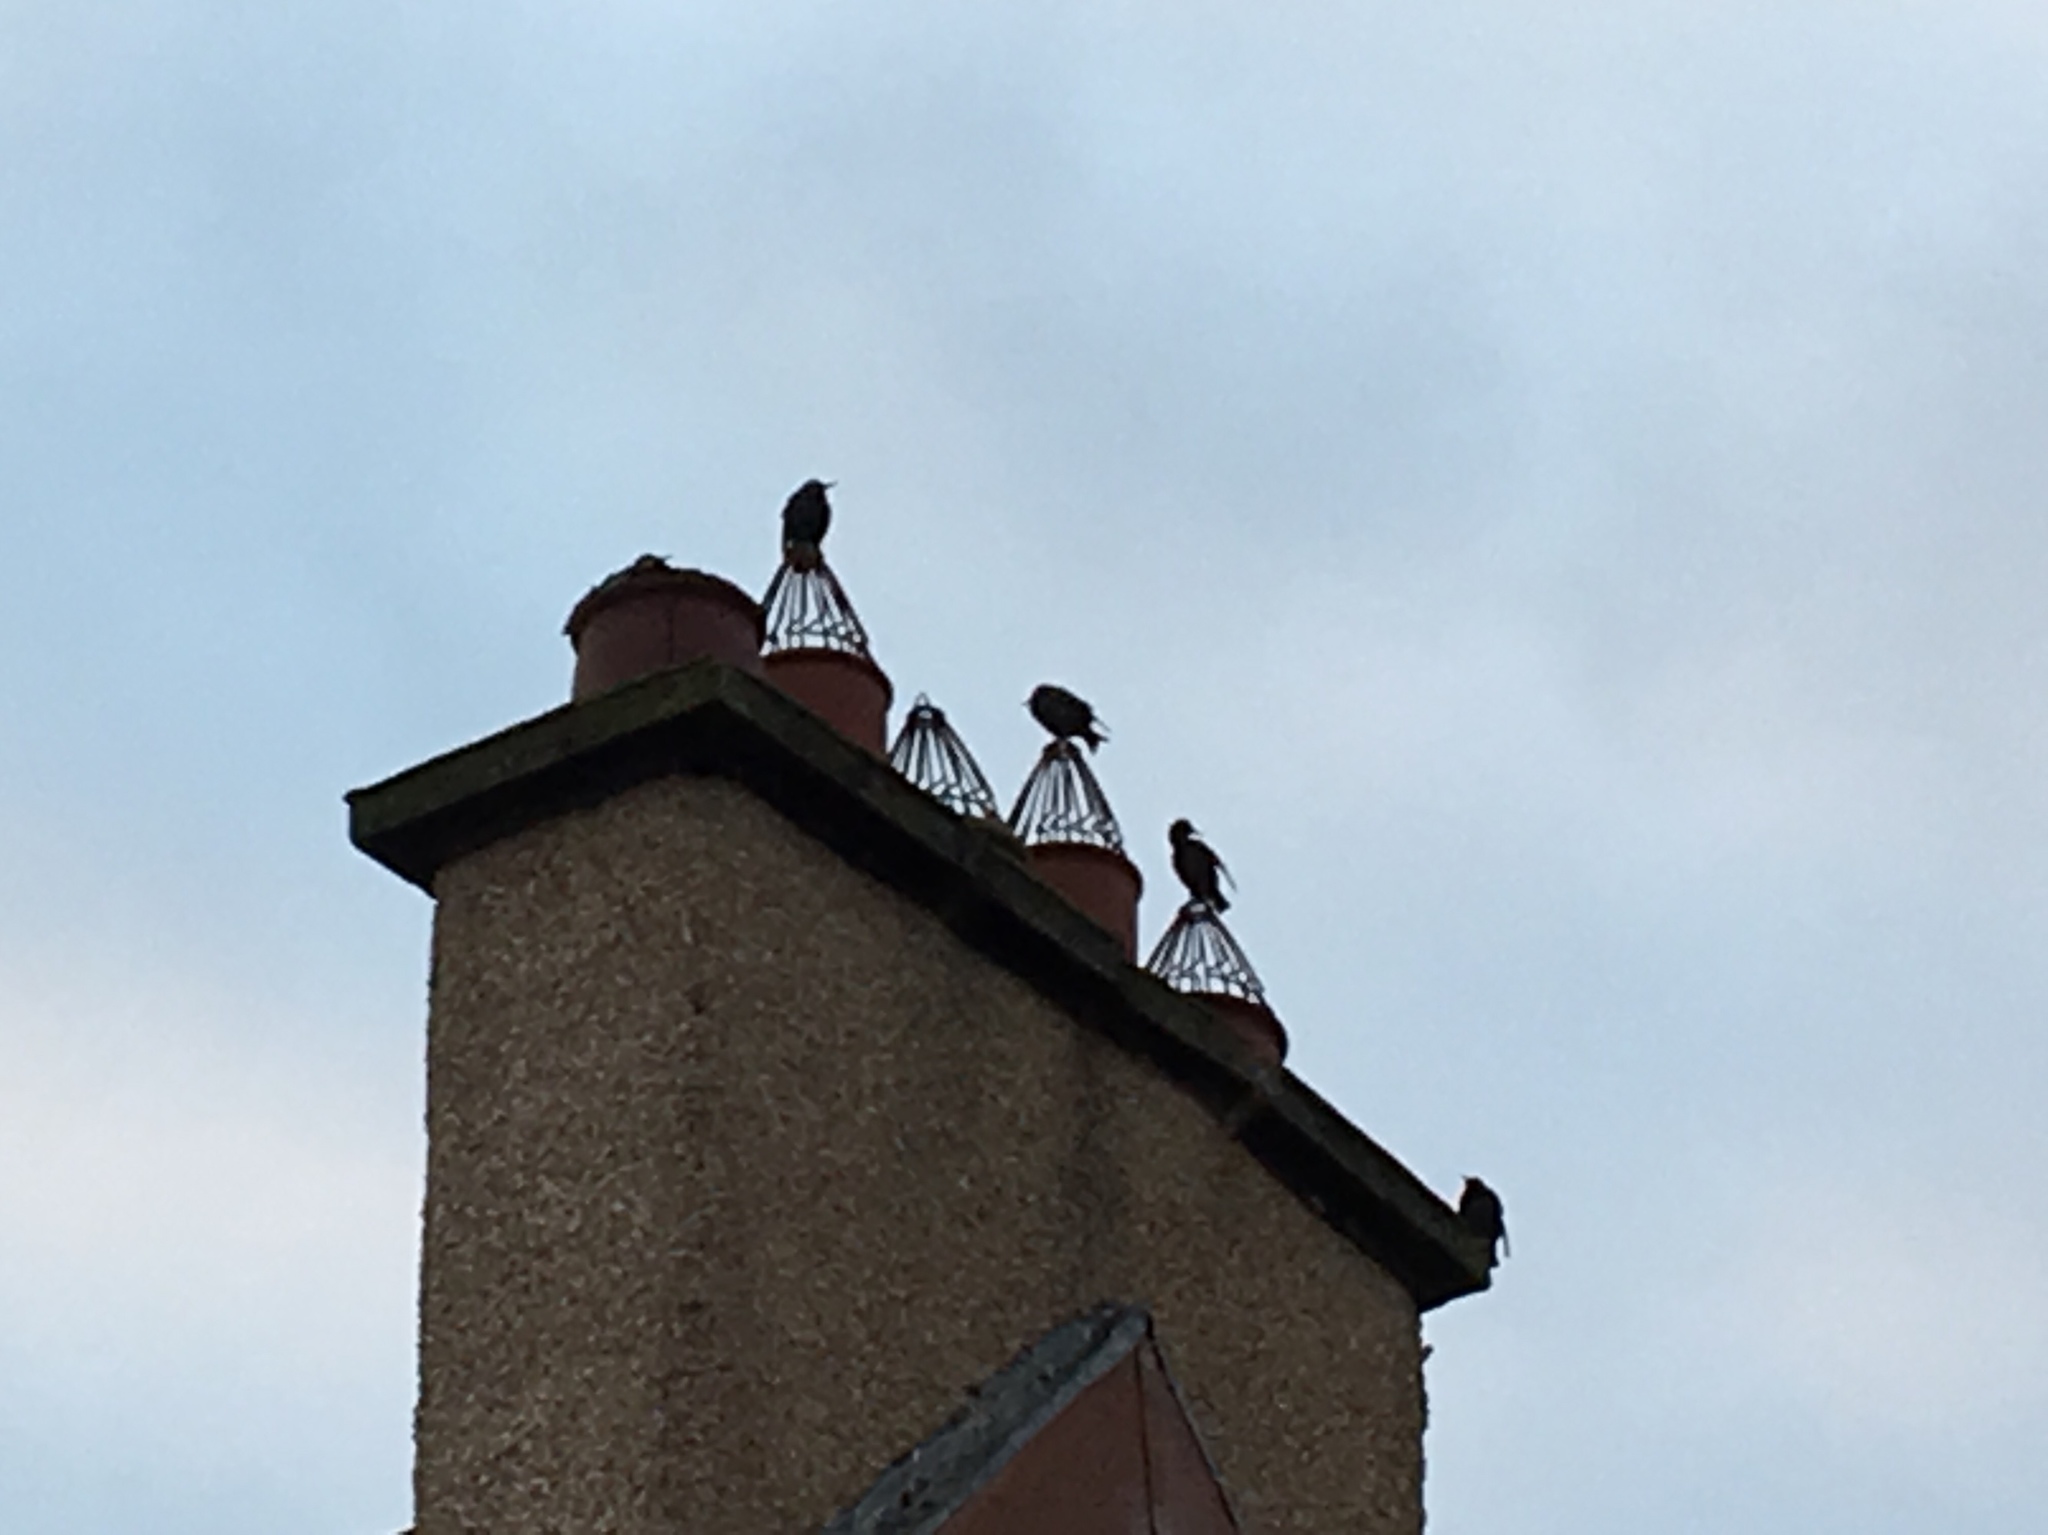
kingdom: Animalia
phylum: Chordata
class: Aves
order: Passeriformes
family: Sturnidae
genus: Sturnus
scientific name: Sturnus vulgaris
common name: Common starling
